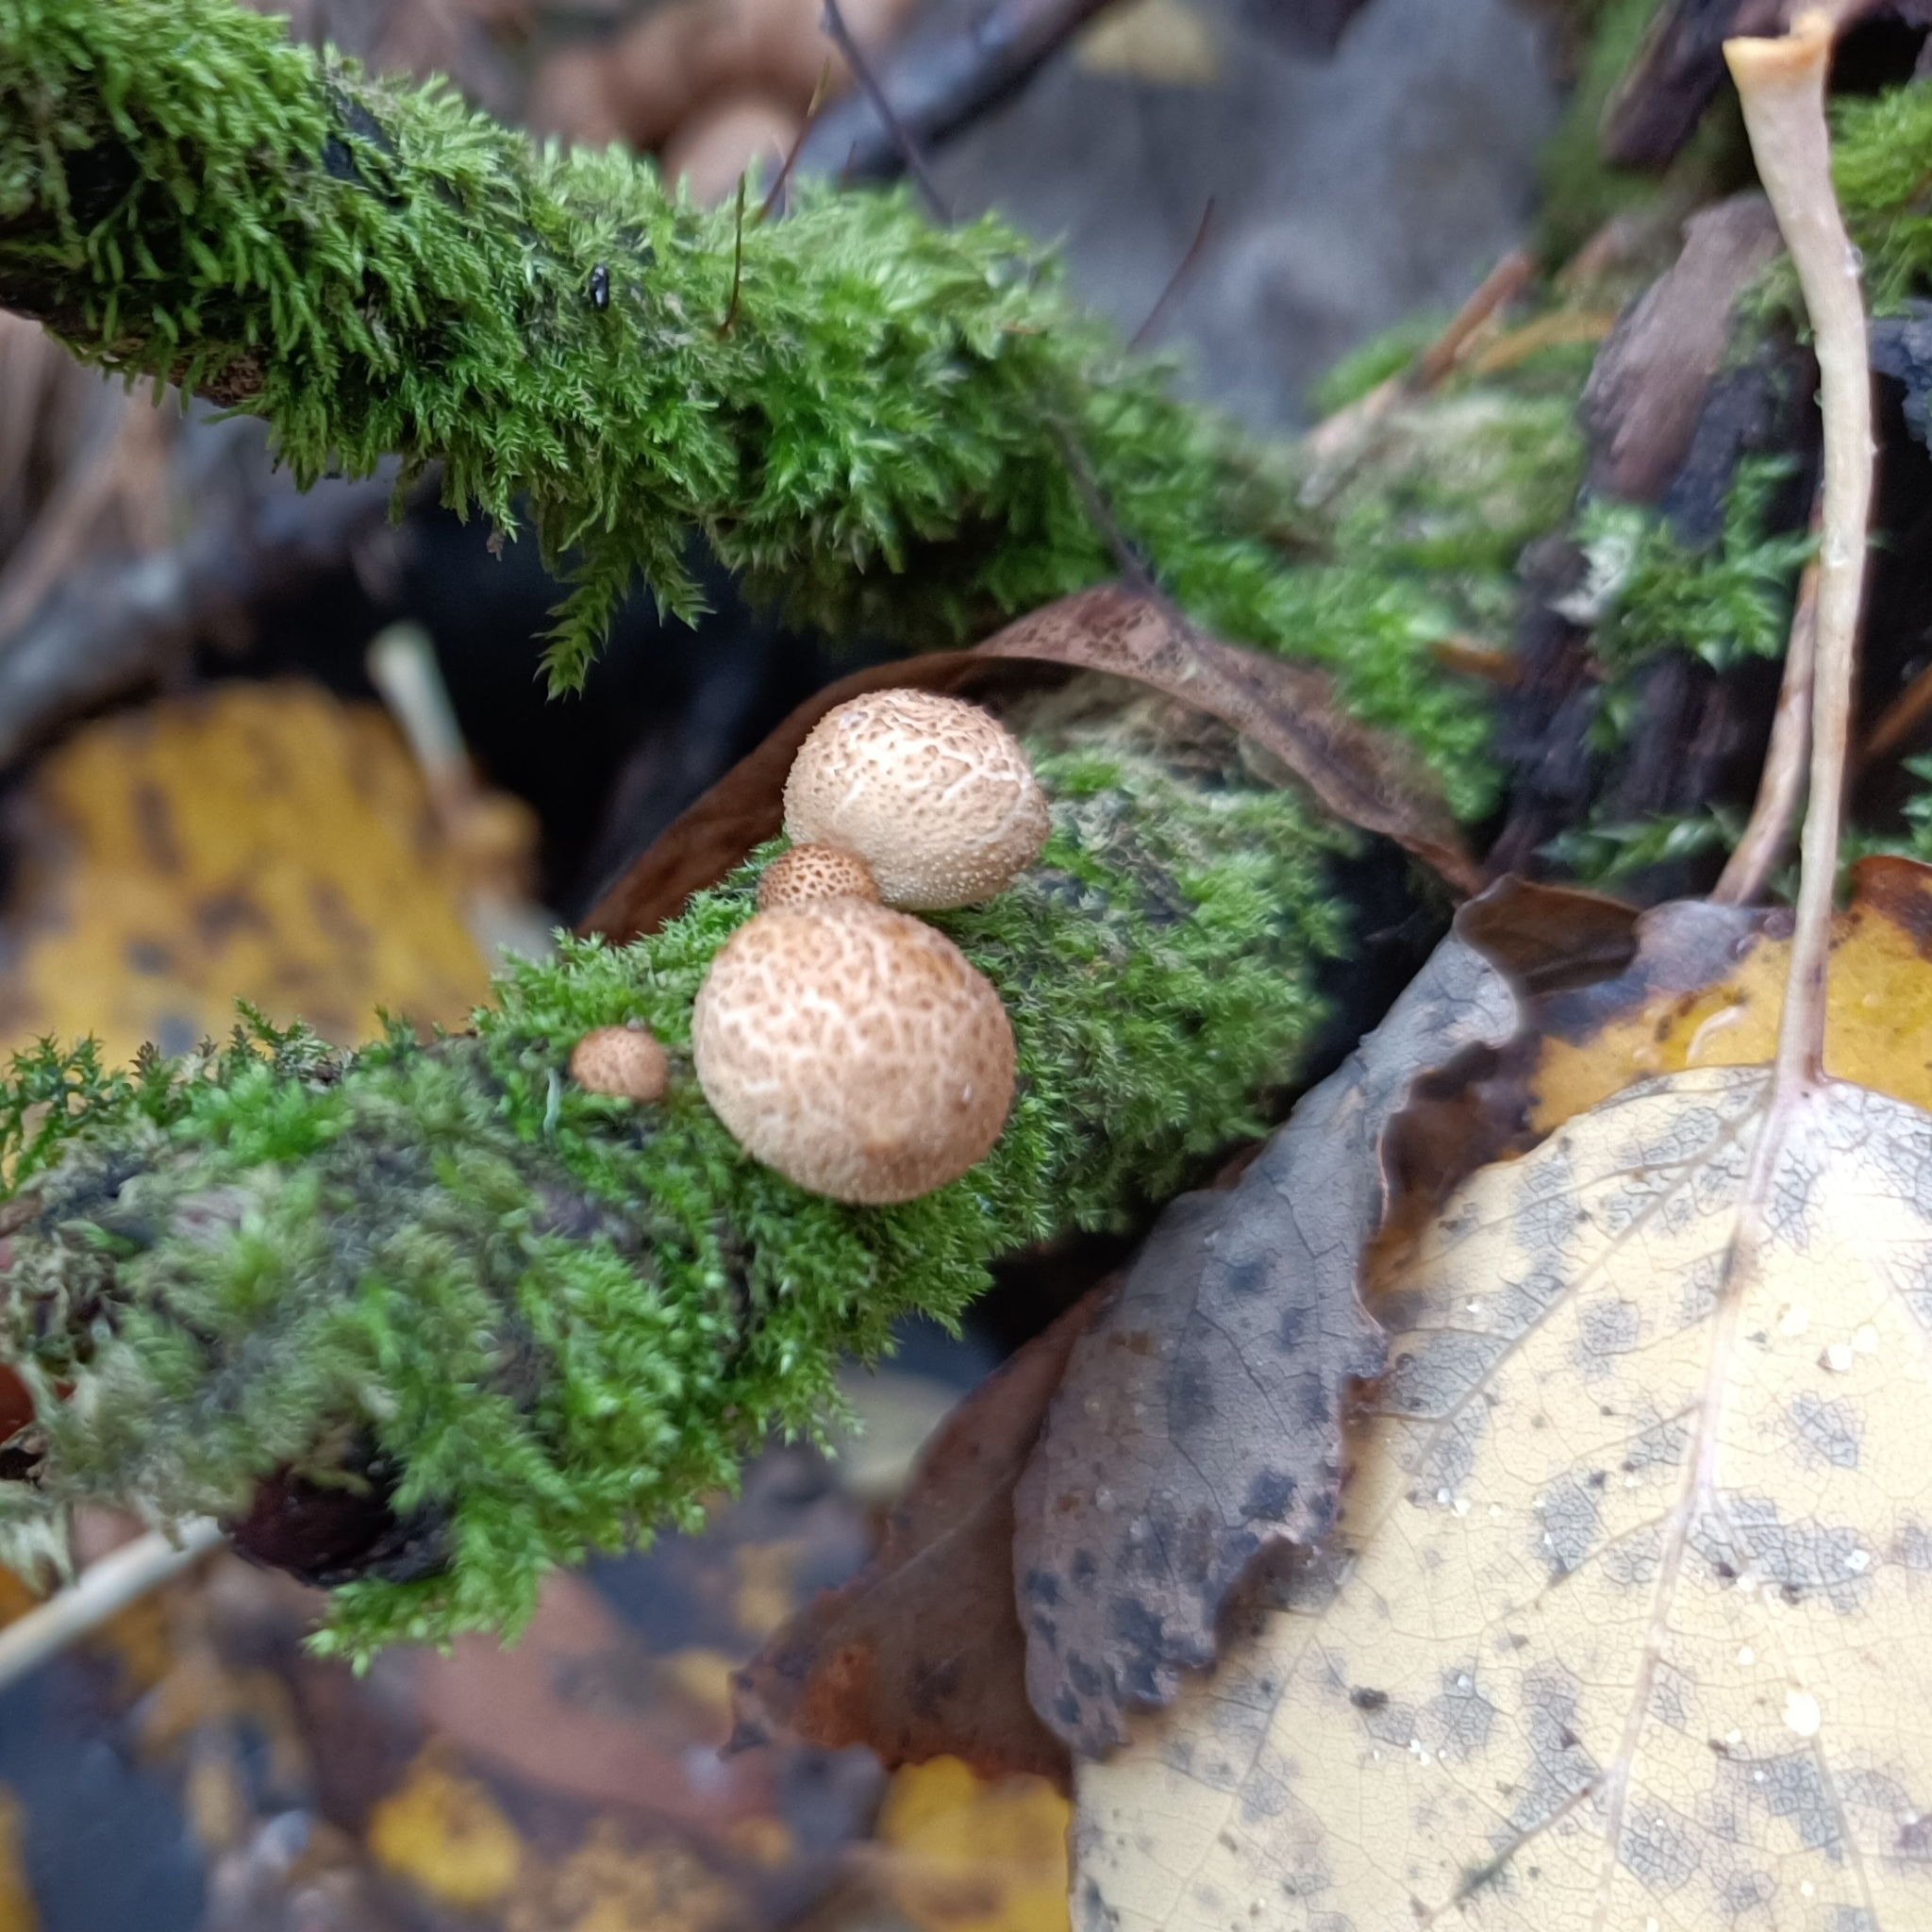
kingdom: Fungi
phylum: Basidiomycota
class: Agaricomycetes
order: Agaricales
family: Lycoperdaceae
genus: Apioperdon
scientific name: Apioperdon pyriforme
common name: Pear-shaped puffball
